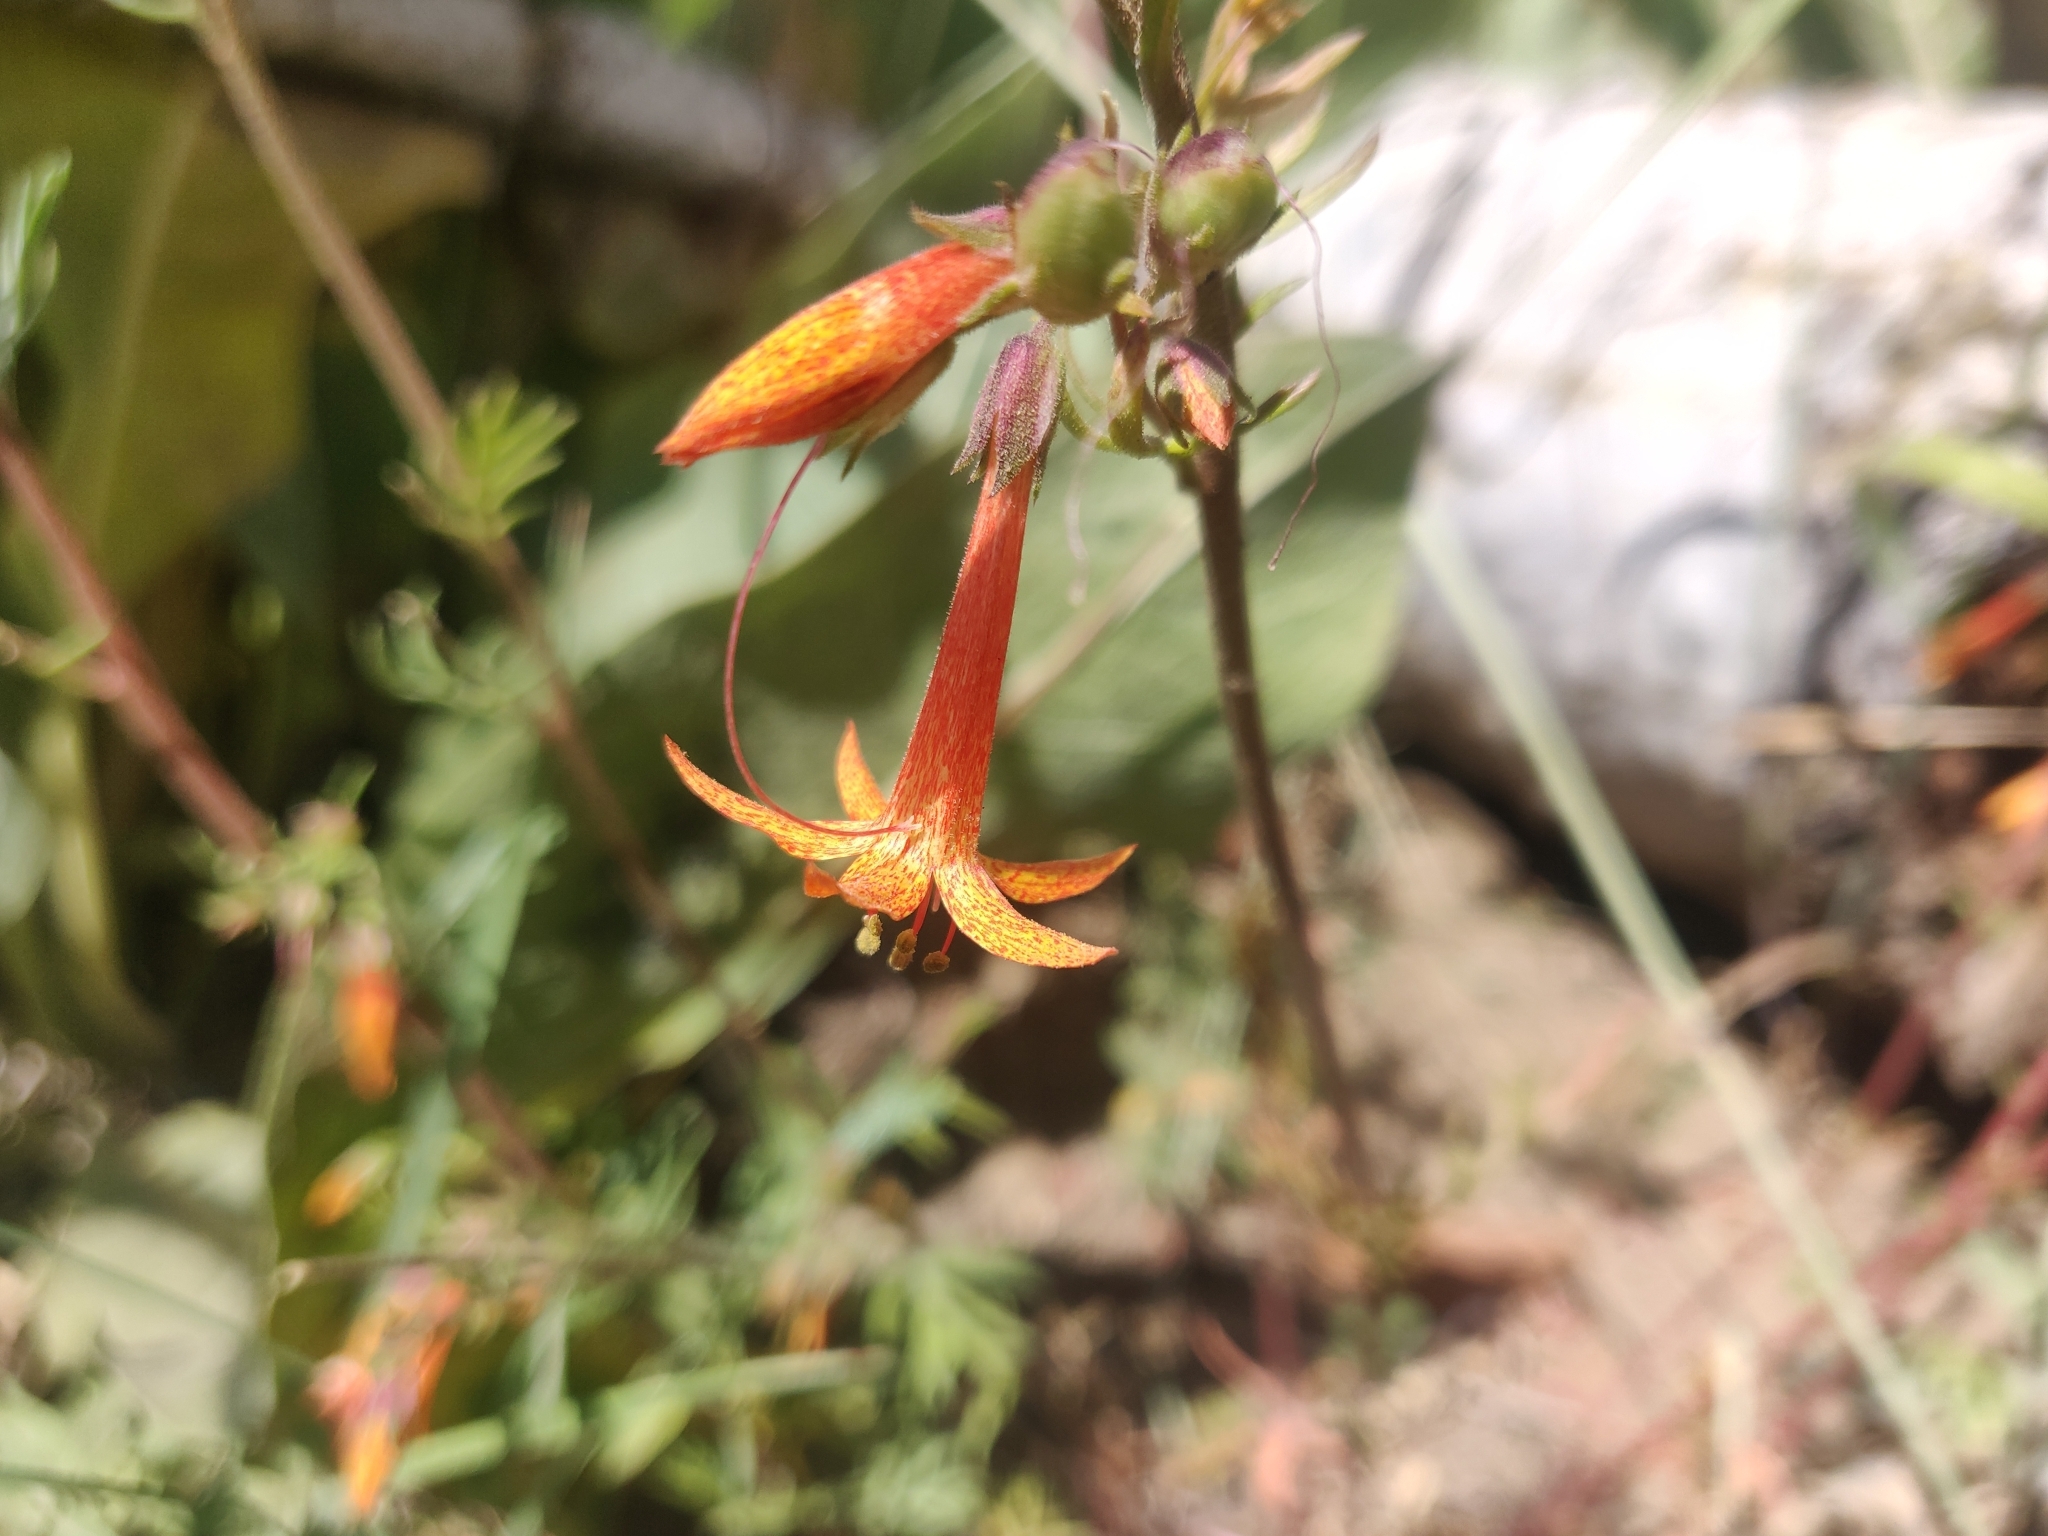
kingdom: Plantae
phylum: Tracheophyta
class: Magnoliopsida
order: Ericales
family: Polemoniaceae
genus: Ipomopsis
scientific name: Ipomopsis aggregata
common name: Scarlet gilia
